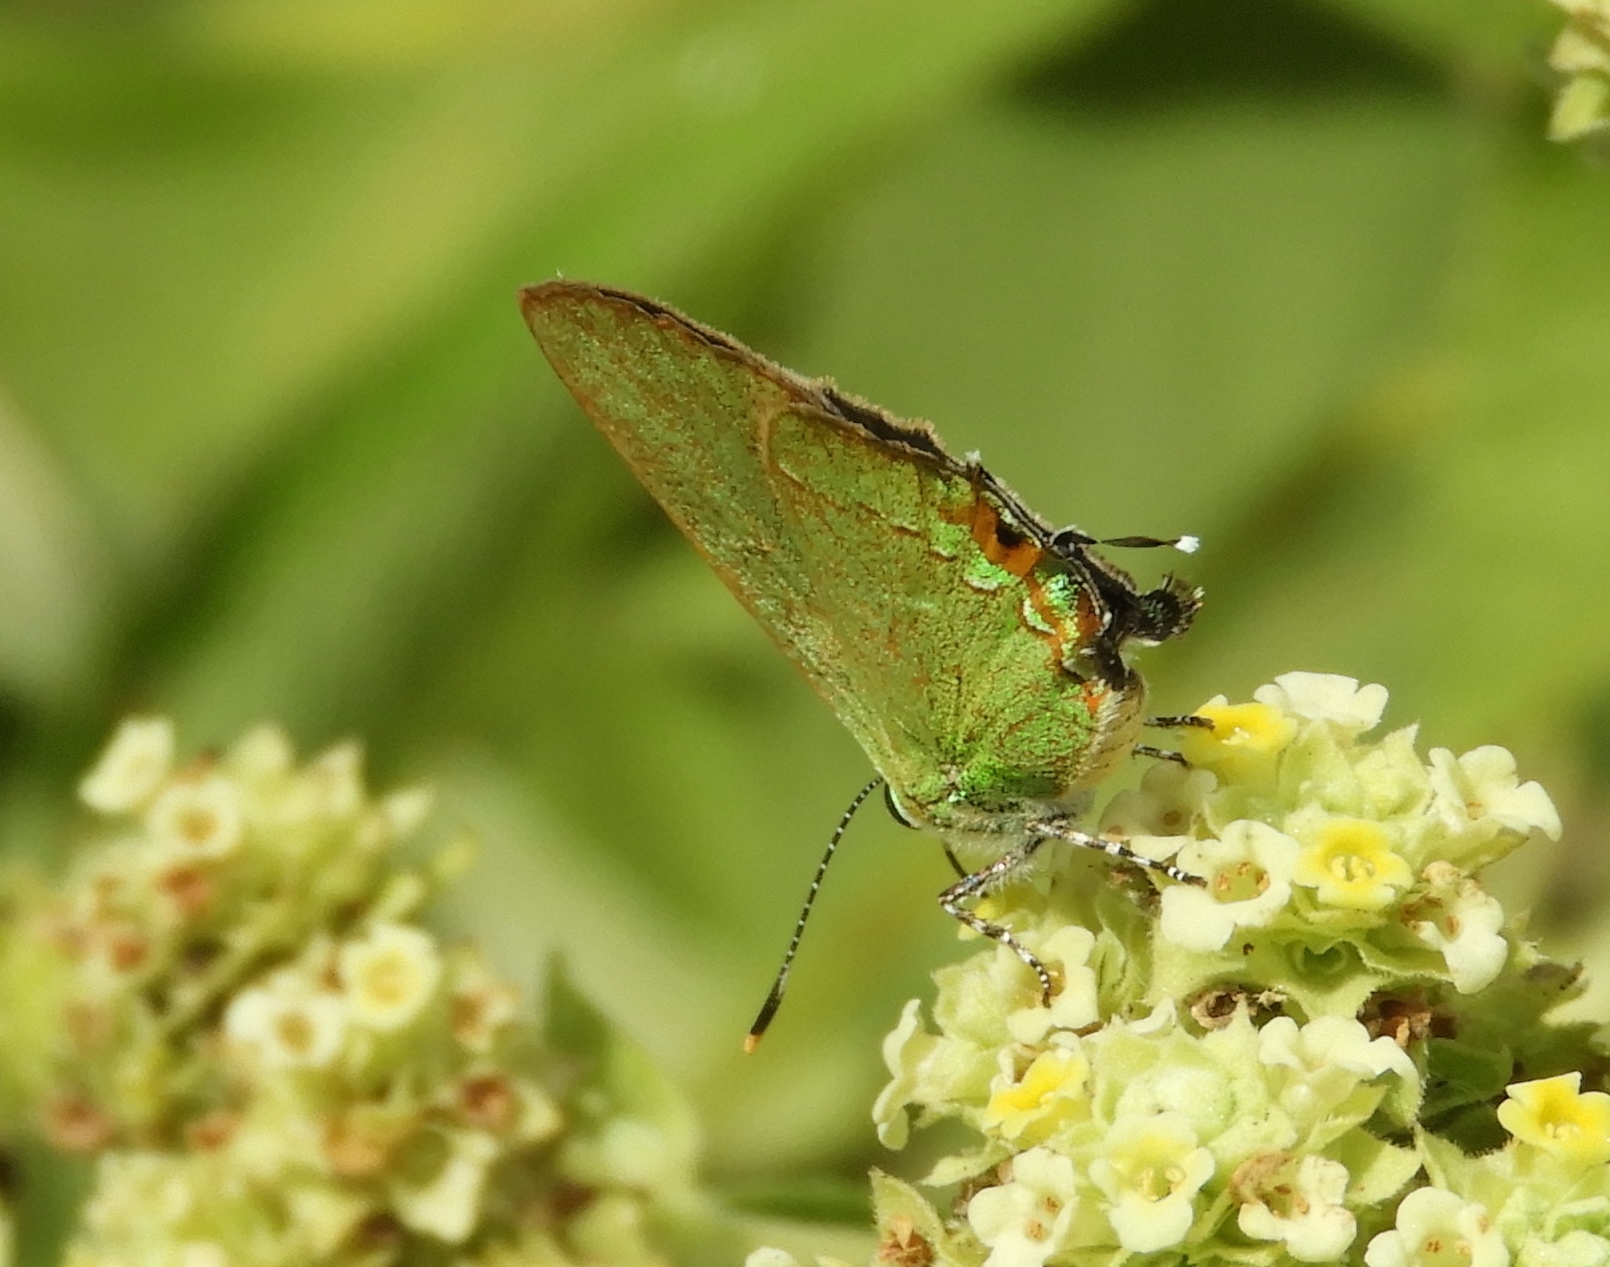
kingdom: Animalia
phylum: Arthropoda
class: Insecta
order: Lepidoptera
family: Lycaenidae
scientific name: Lycaenidae
